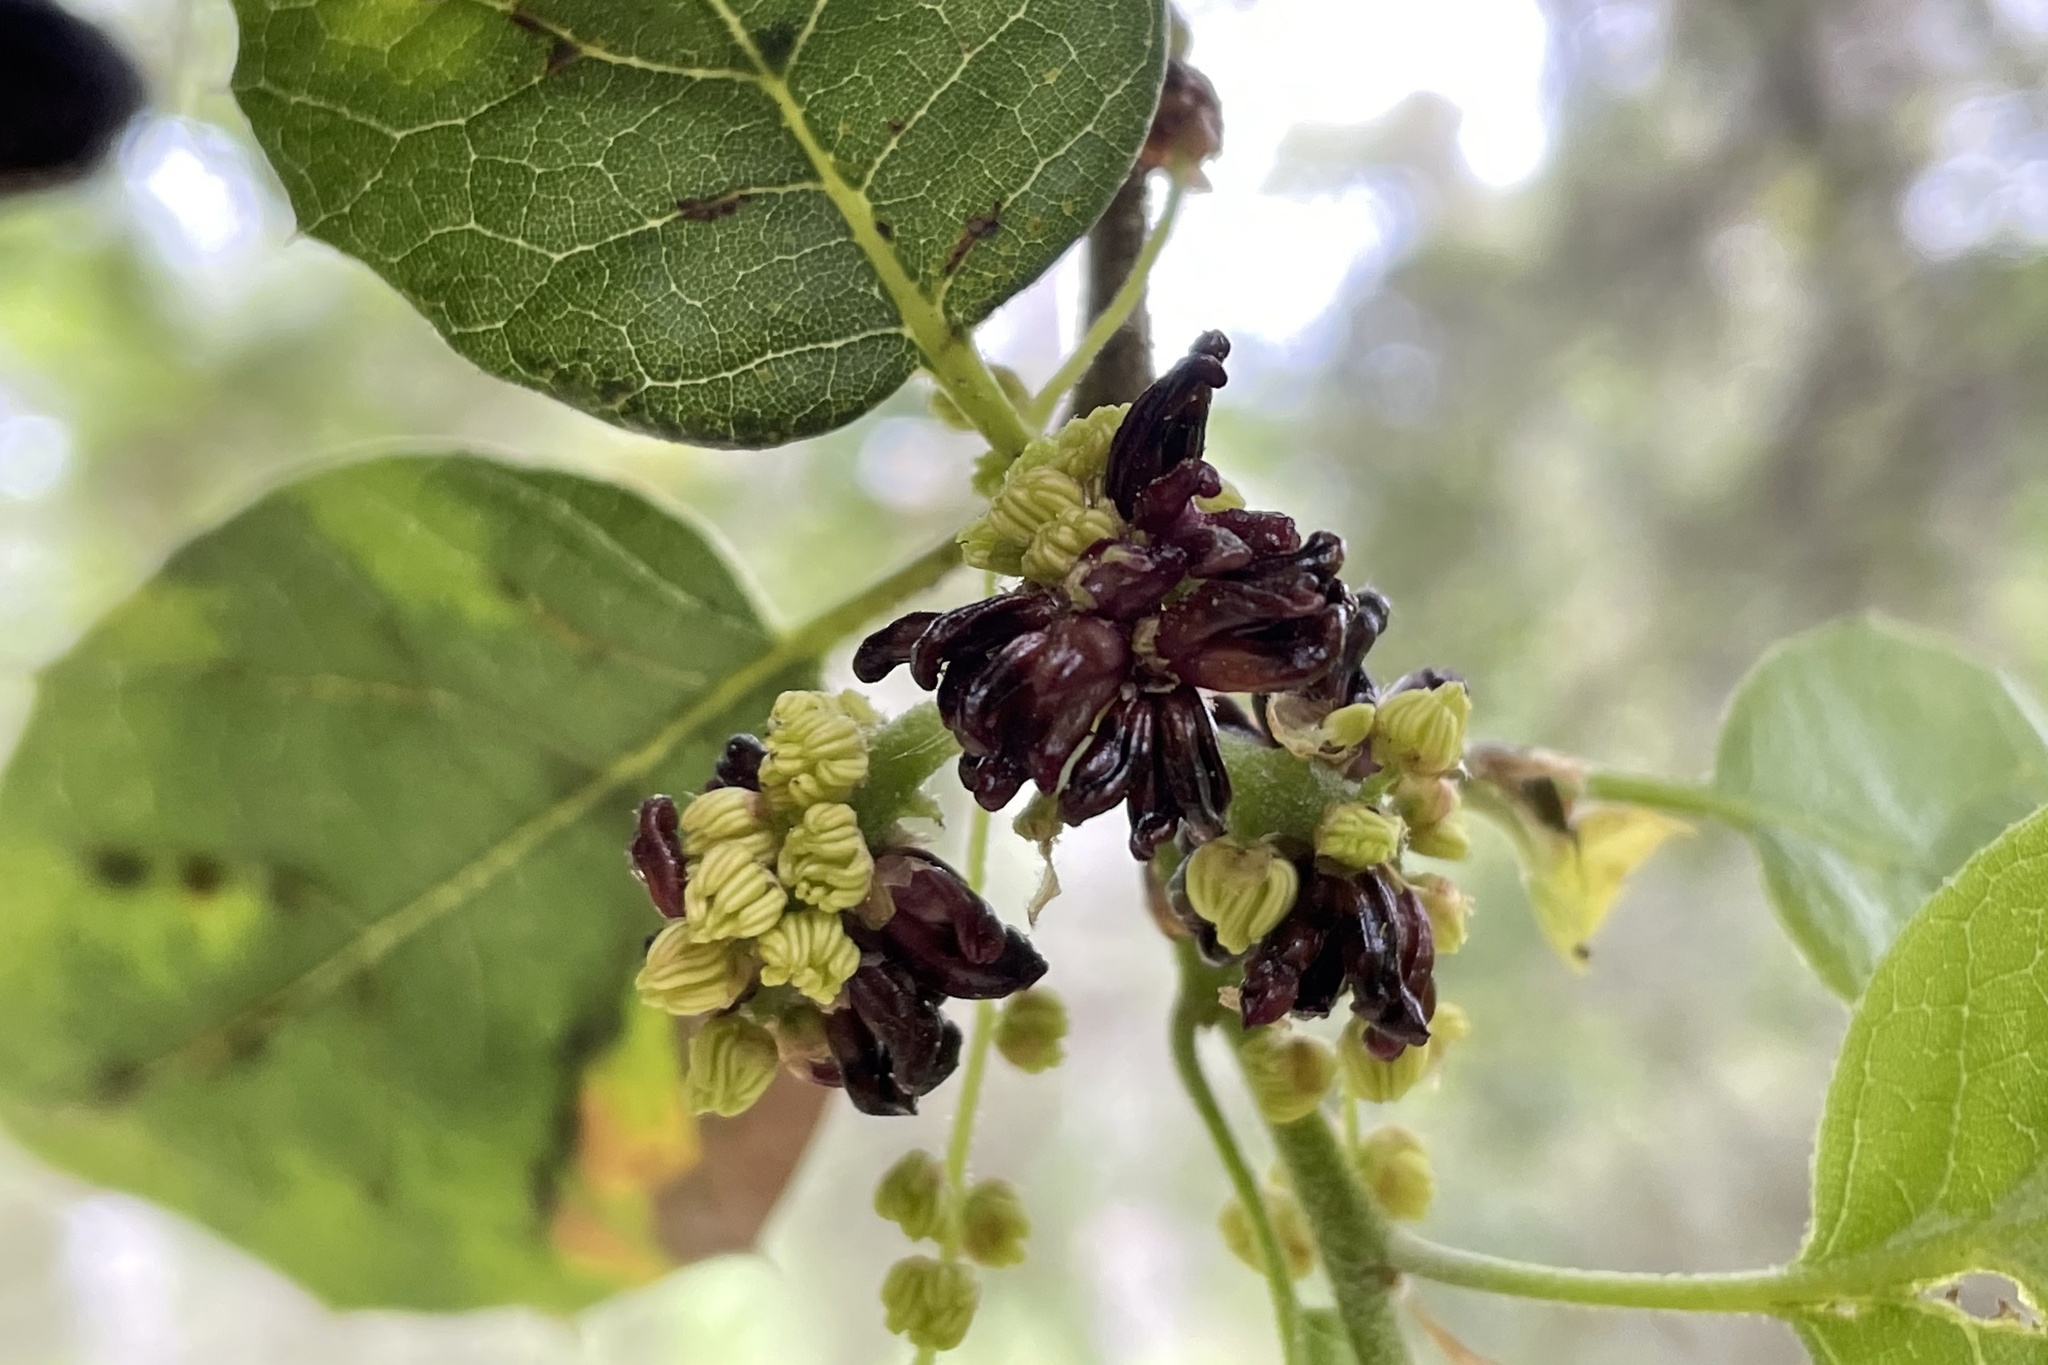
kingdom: Animalia
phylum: Arthropoda
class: Insecta
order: Hymenoptera
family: Cynipidae
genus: Dryocosmus
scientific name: Dryocosmus
